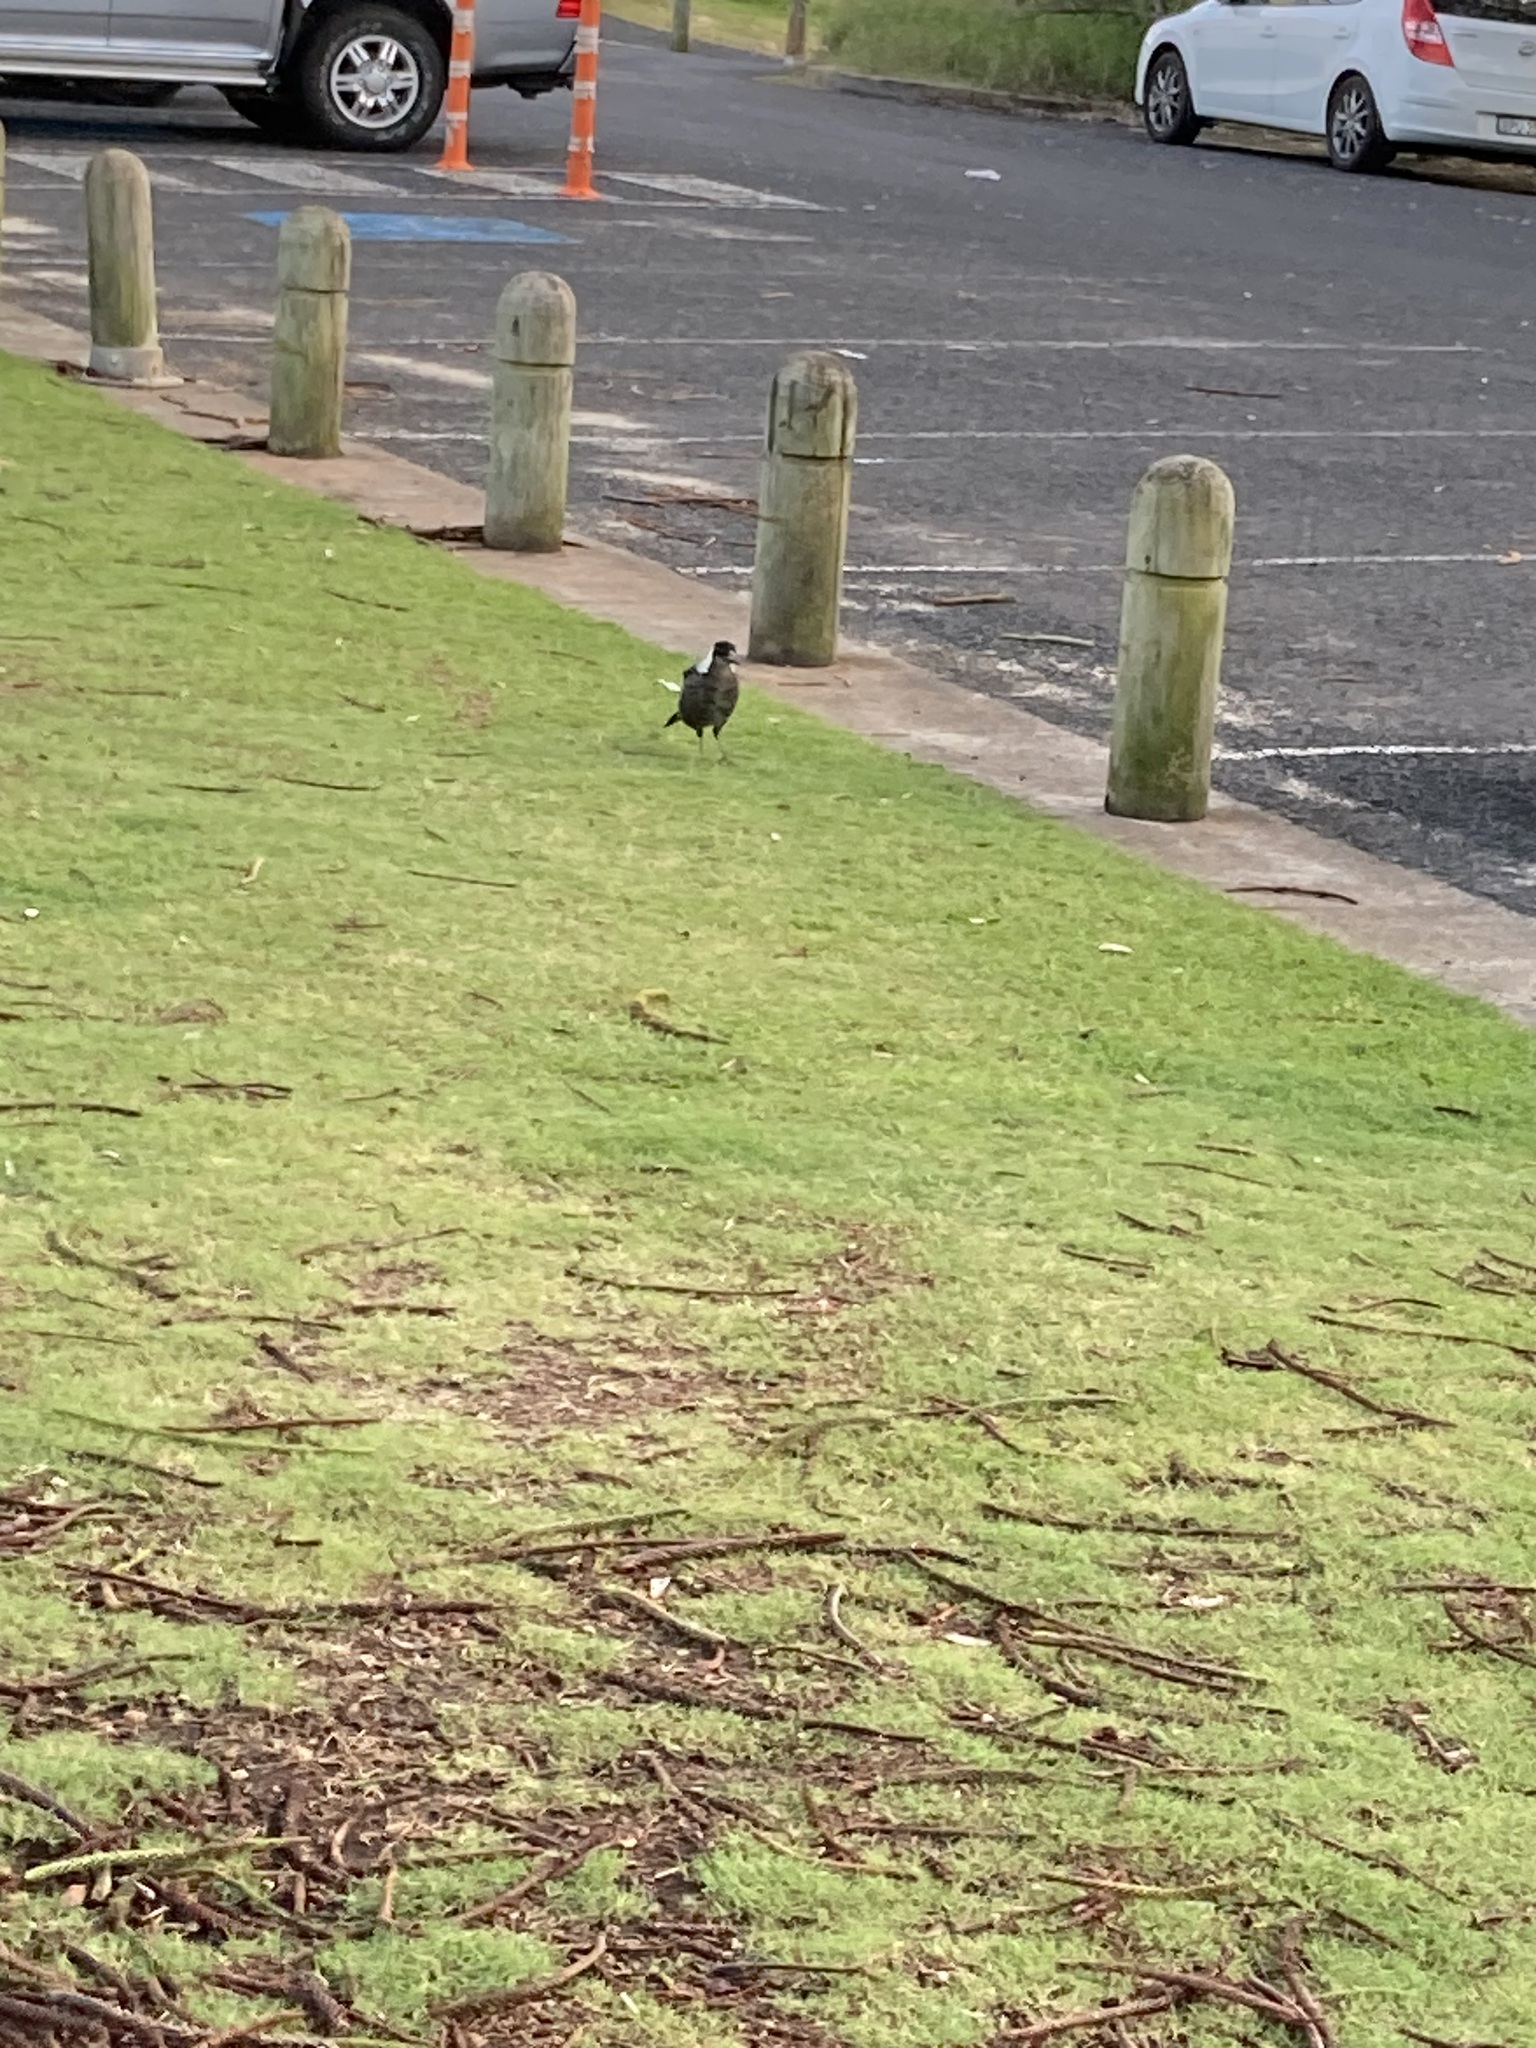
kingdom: Animalia
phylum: Chordata
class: Aves
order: Passeriformes
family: Cracticidae
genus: Gymnorhina
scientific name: Gymnorhina tibicen
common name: Australian magpie
